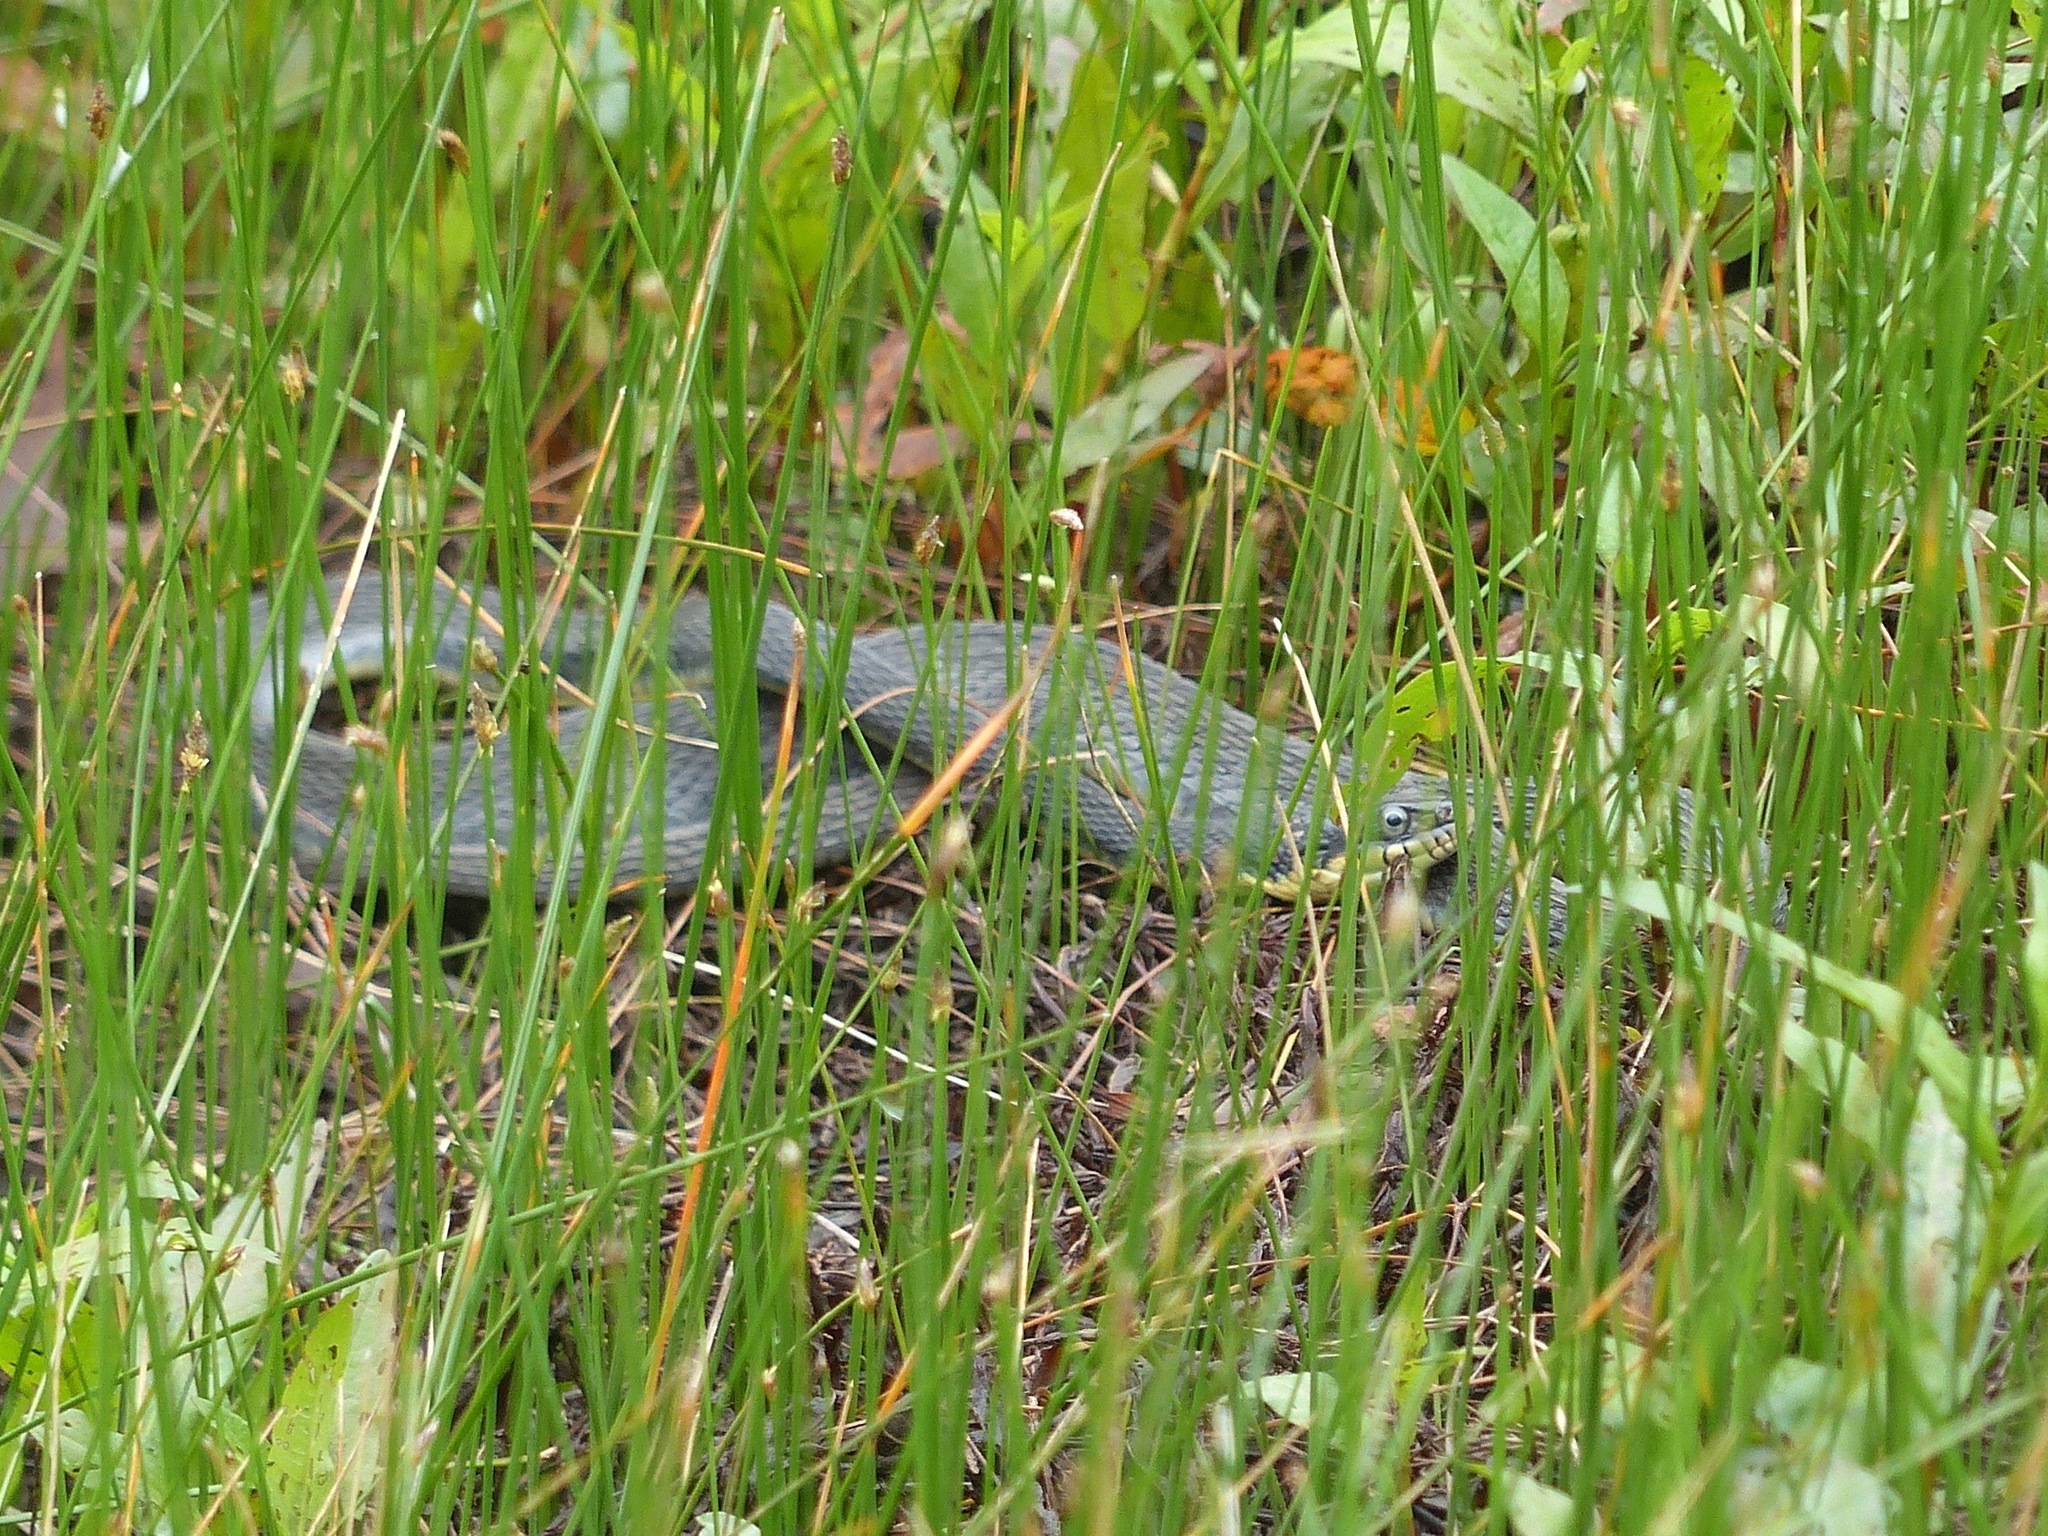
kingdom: Animalia
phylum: Chordata
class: Squamata
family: Colubridae
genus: Nerodia
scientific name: Nerodia erythrogaster
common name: Plainbelly water snake
